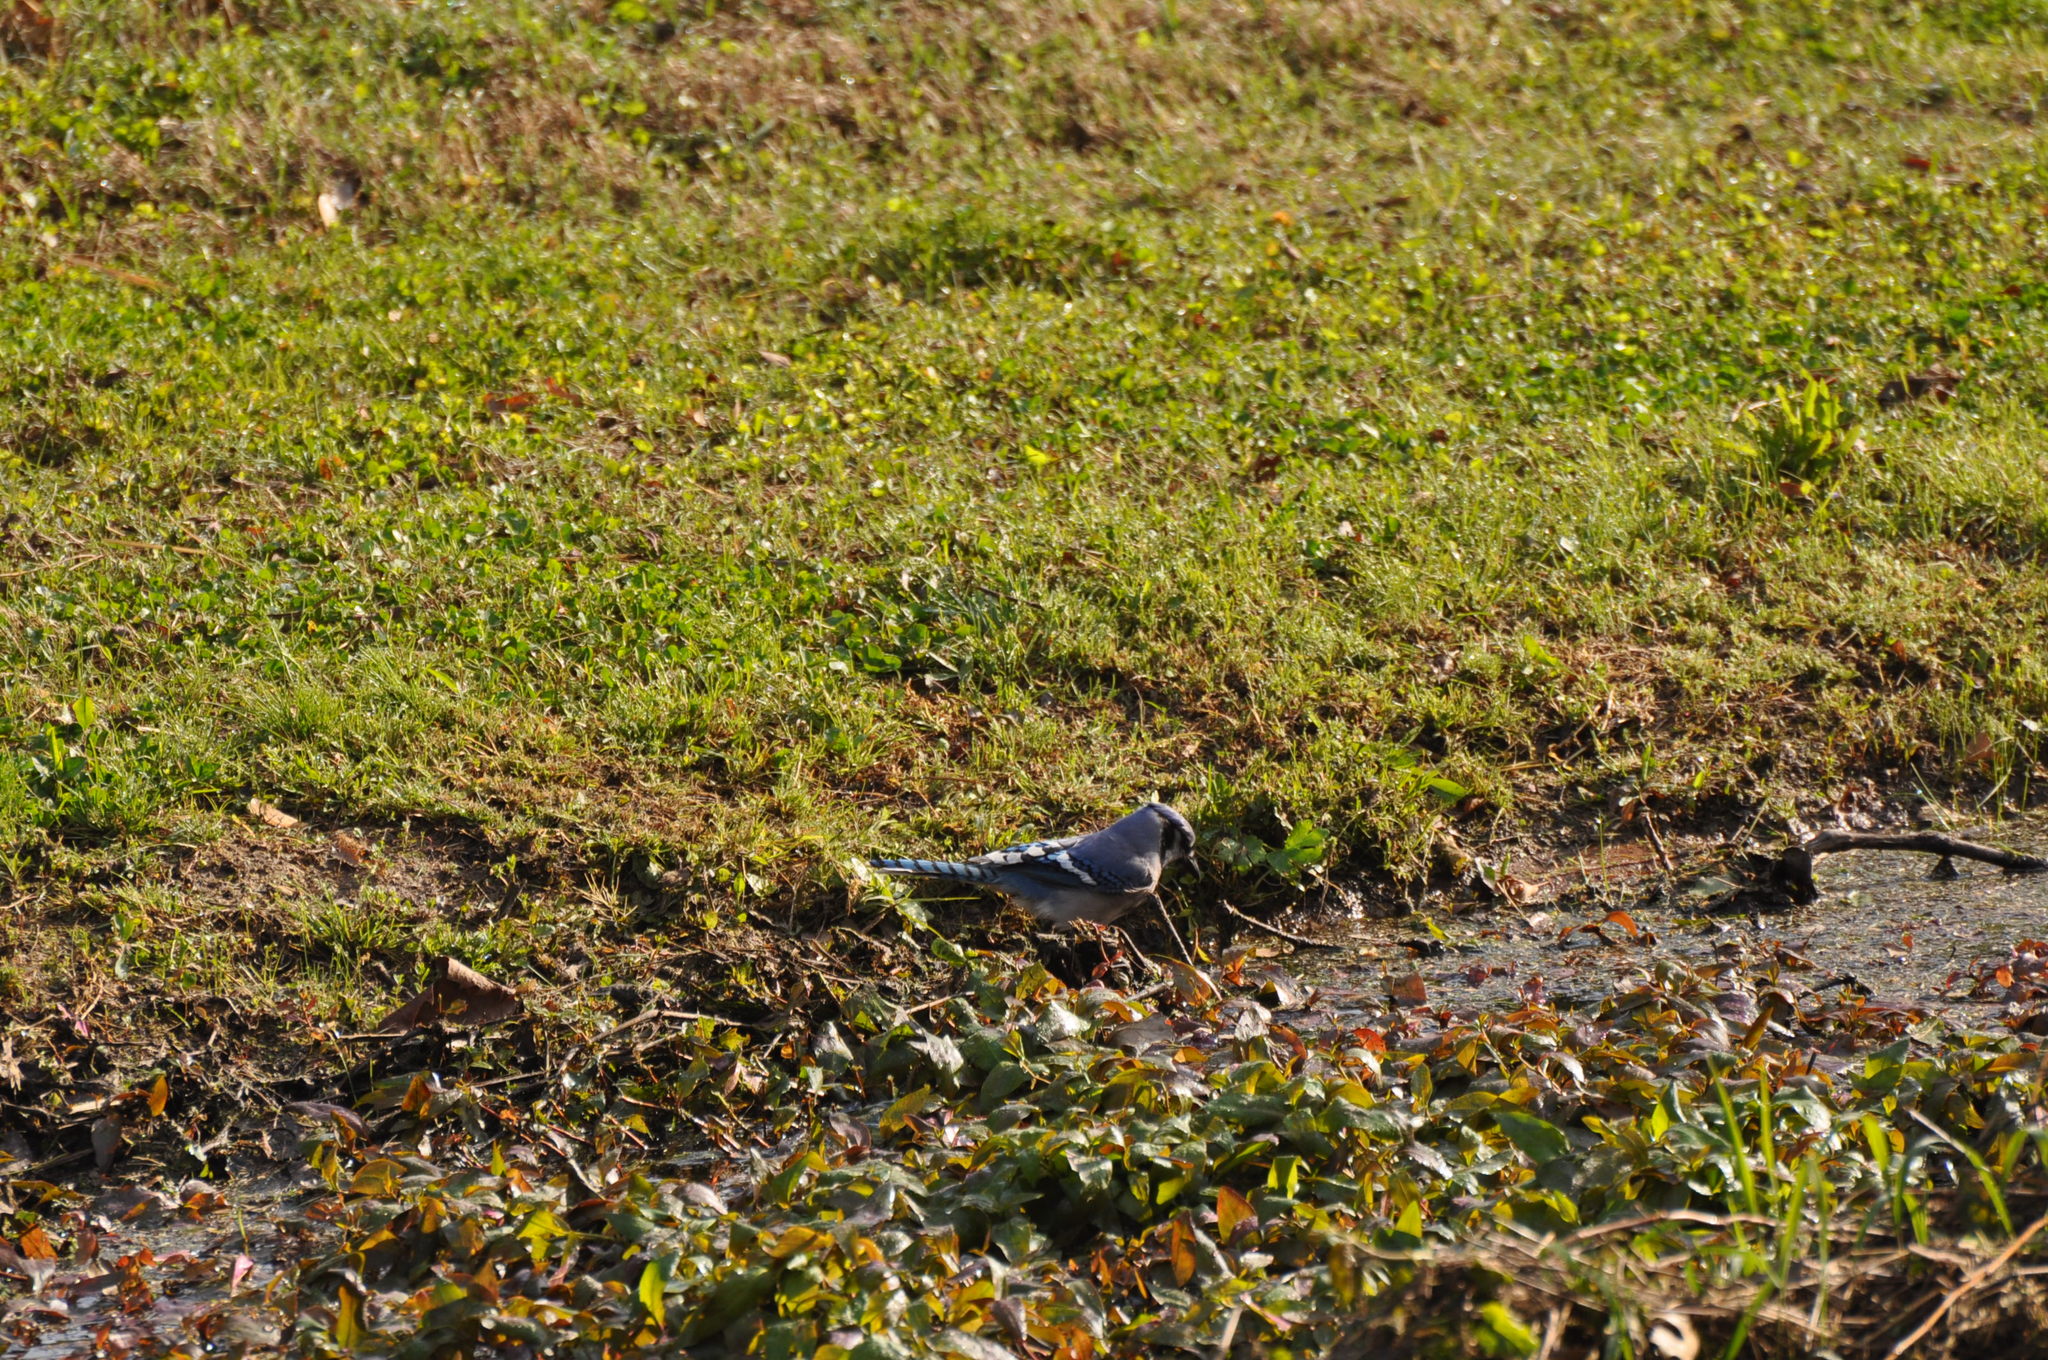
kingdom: Animalia
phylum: Chordata
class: Aves
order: Passeriformes
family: Corvidae
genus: Cyanocitta
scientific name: Cyanocitta cristata
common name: Blue jay
